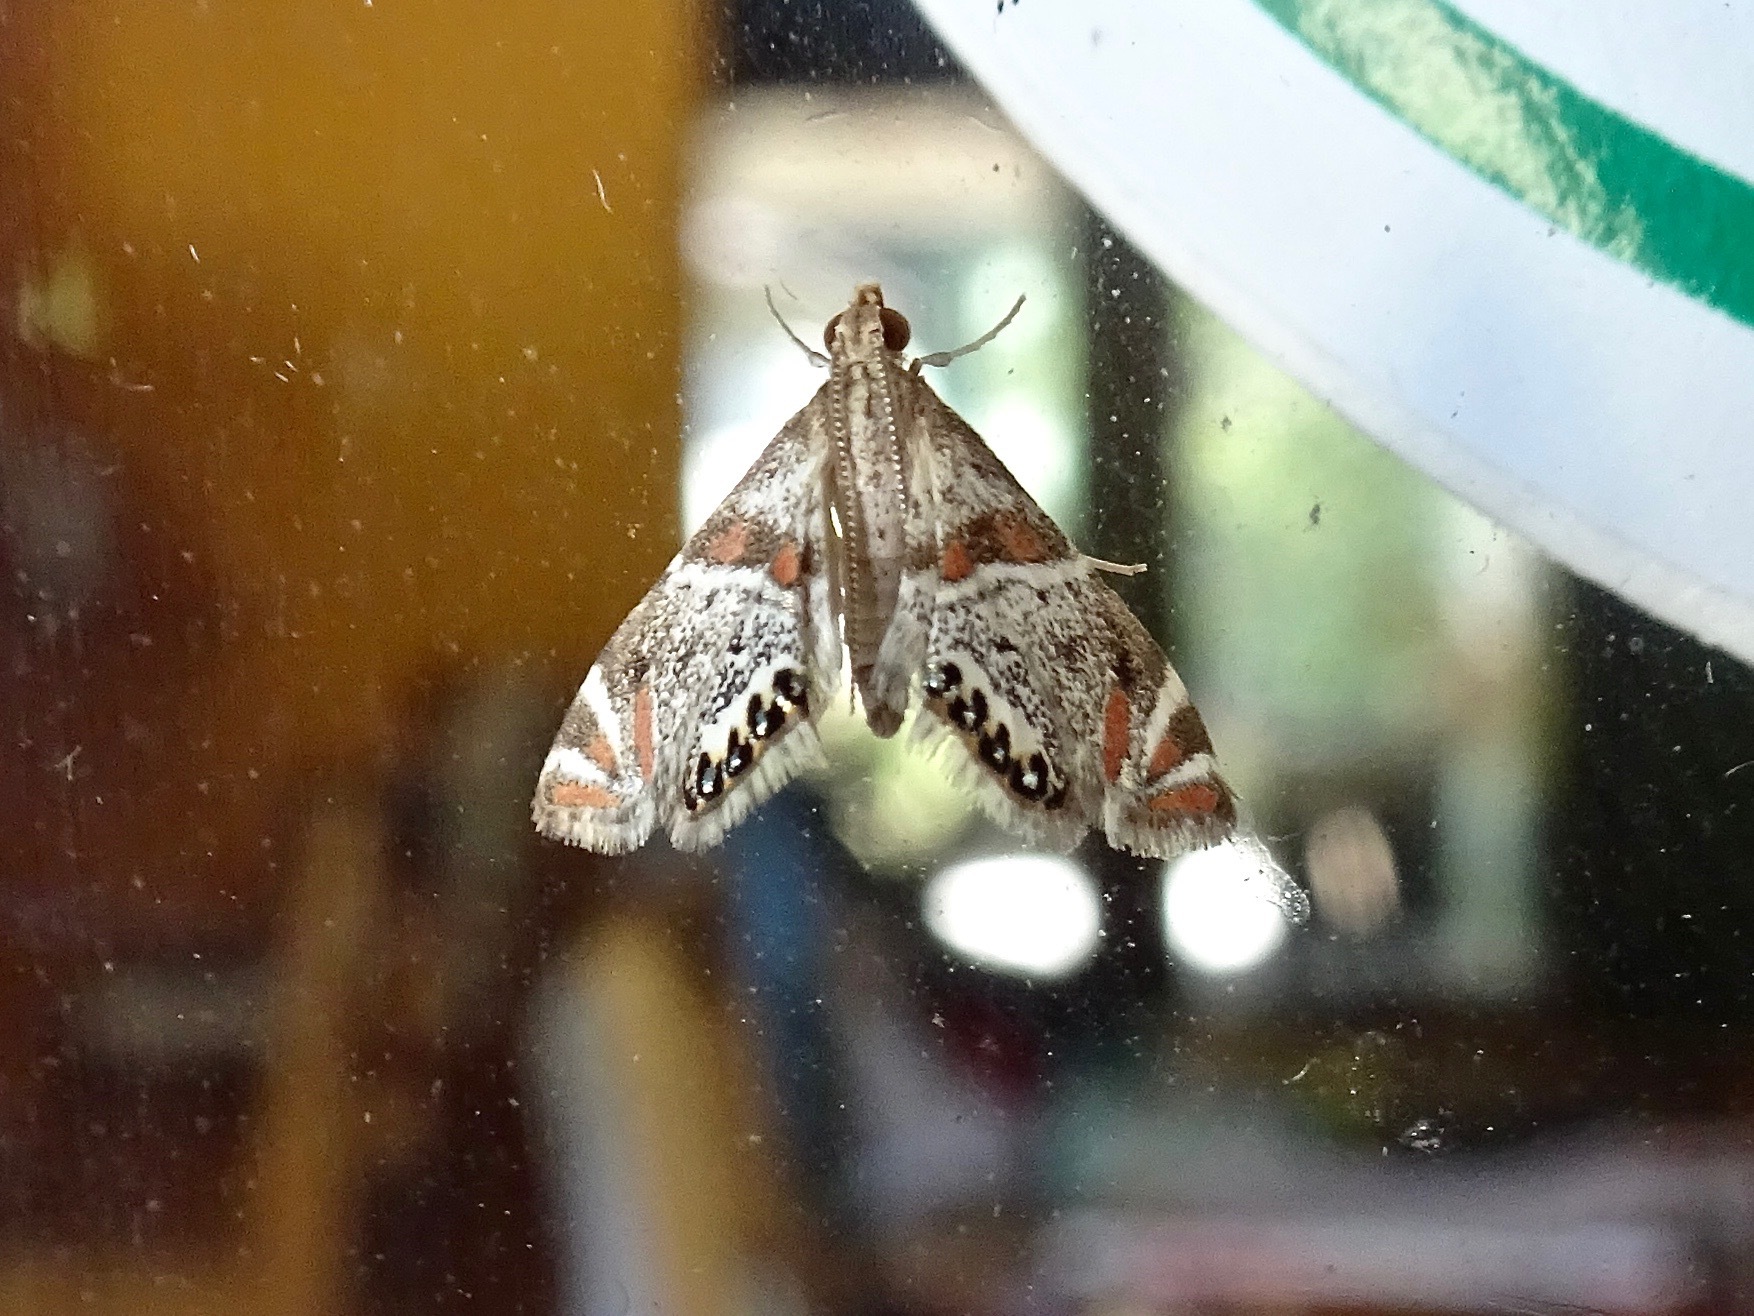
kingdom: Animalia
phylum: Arthropoda
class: Insecta
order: Lepidoptera
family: Crambidae
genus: Petrophila
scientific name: Petrophila jaliscalis
